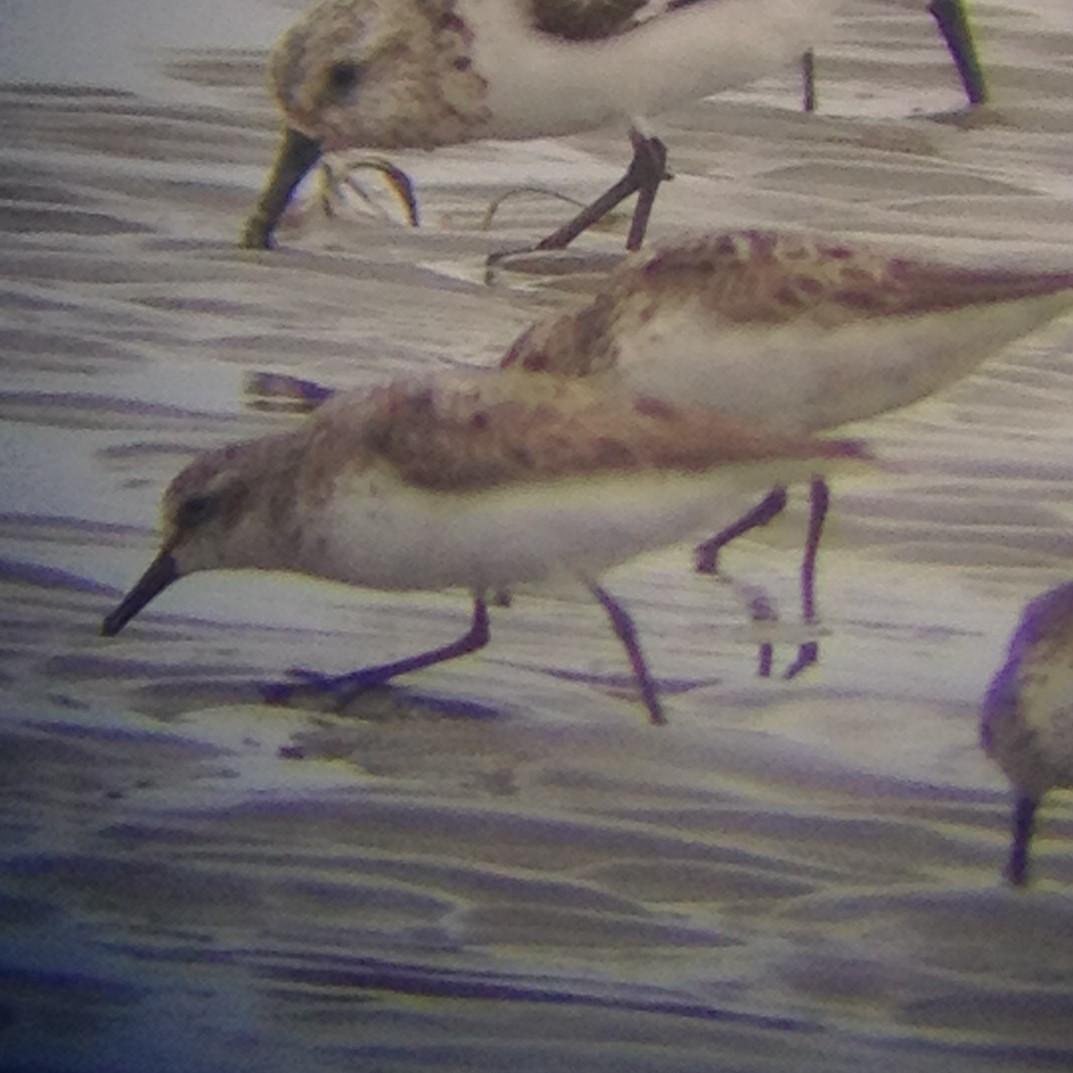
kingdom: Animalia
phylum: Chordata
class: Aves
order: Charadriiformes
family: Scolopacidae
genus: Calidris
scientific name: Calidris pusilla
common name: Semipalmated sandpiper
